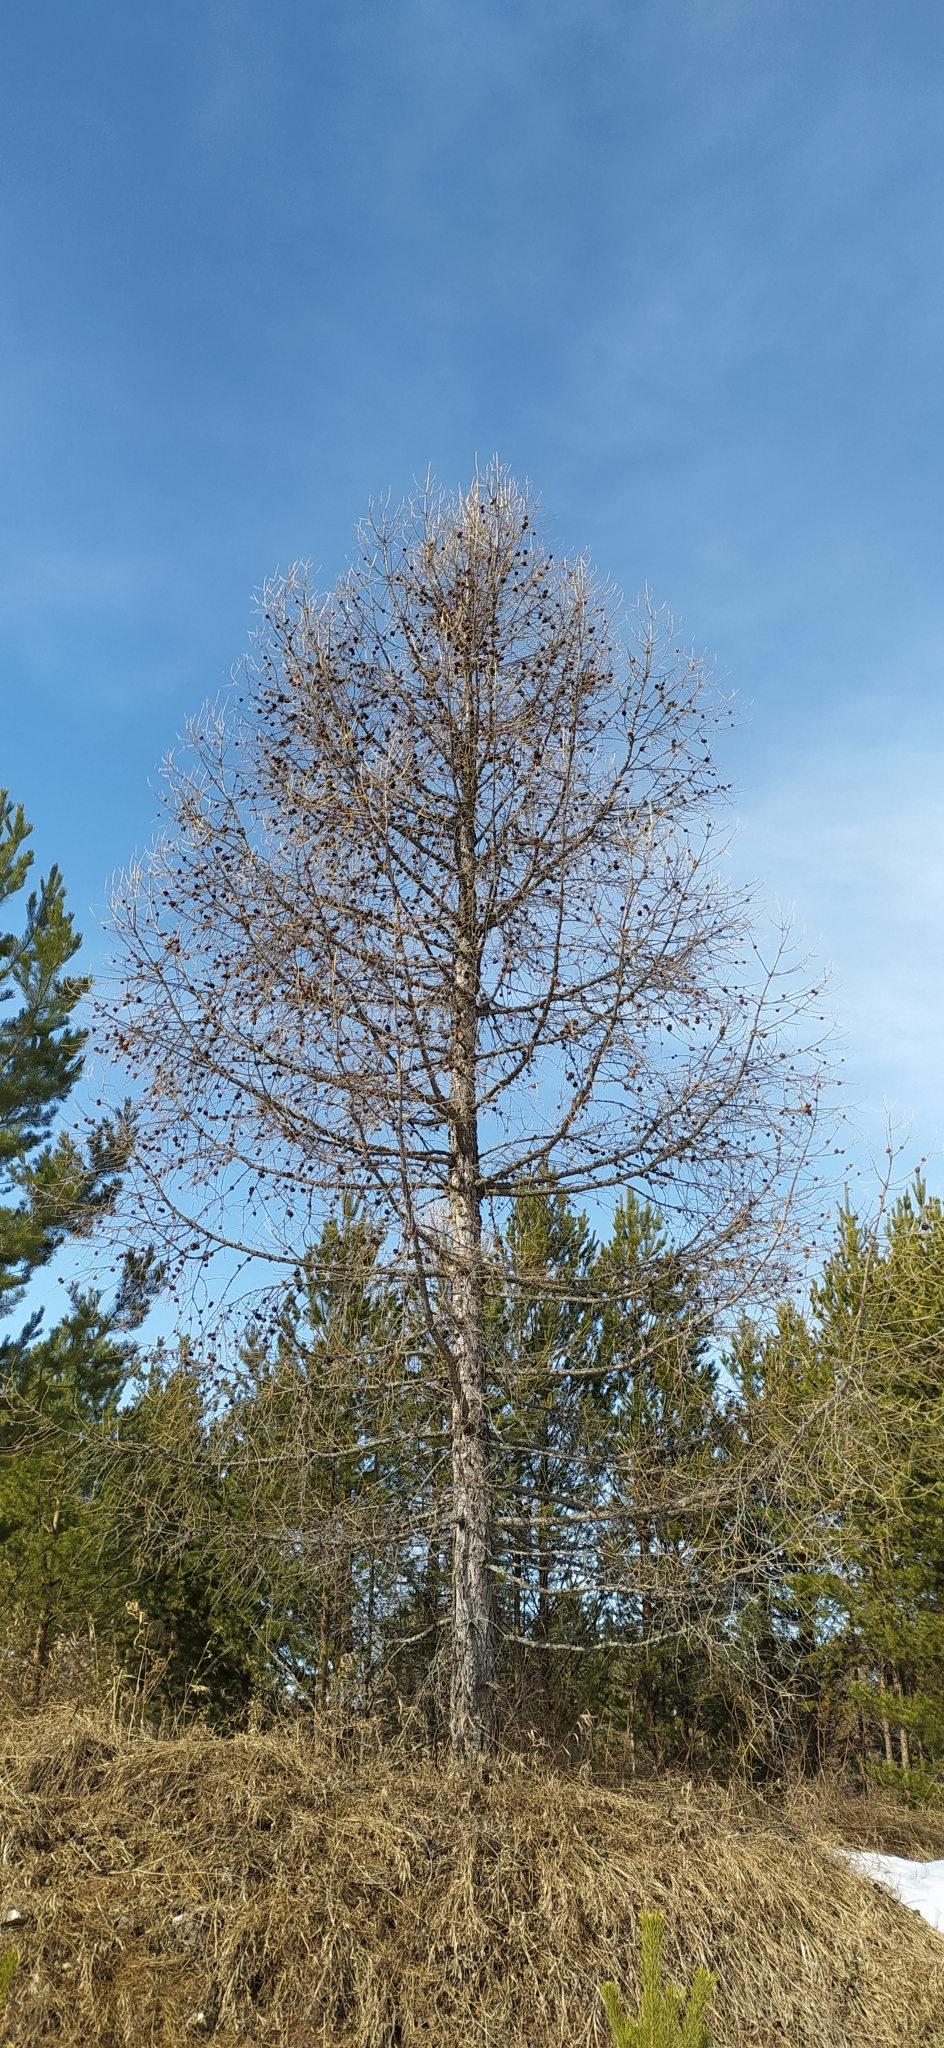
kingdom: Plantae
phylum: Tracheophyta
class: Pinopsida
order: Pinales
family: Pinaceae
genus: Larix
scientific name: Larix sibirica
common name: Siberian larch
